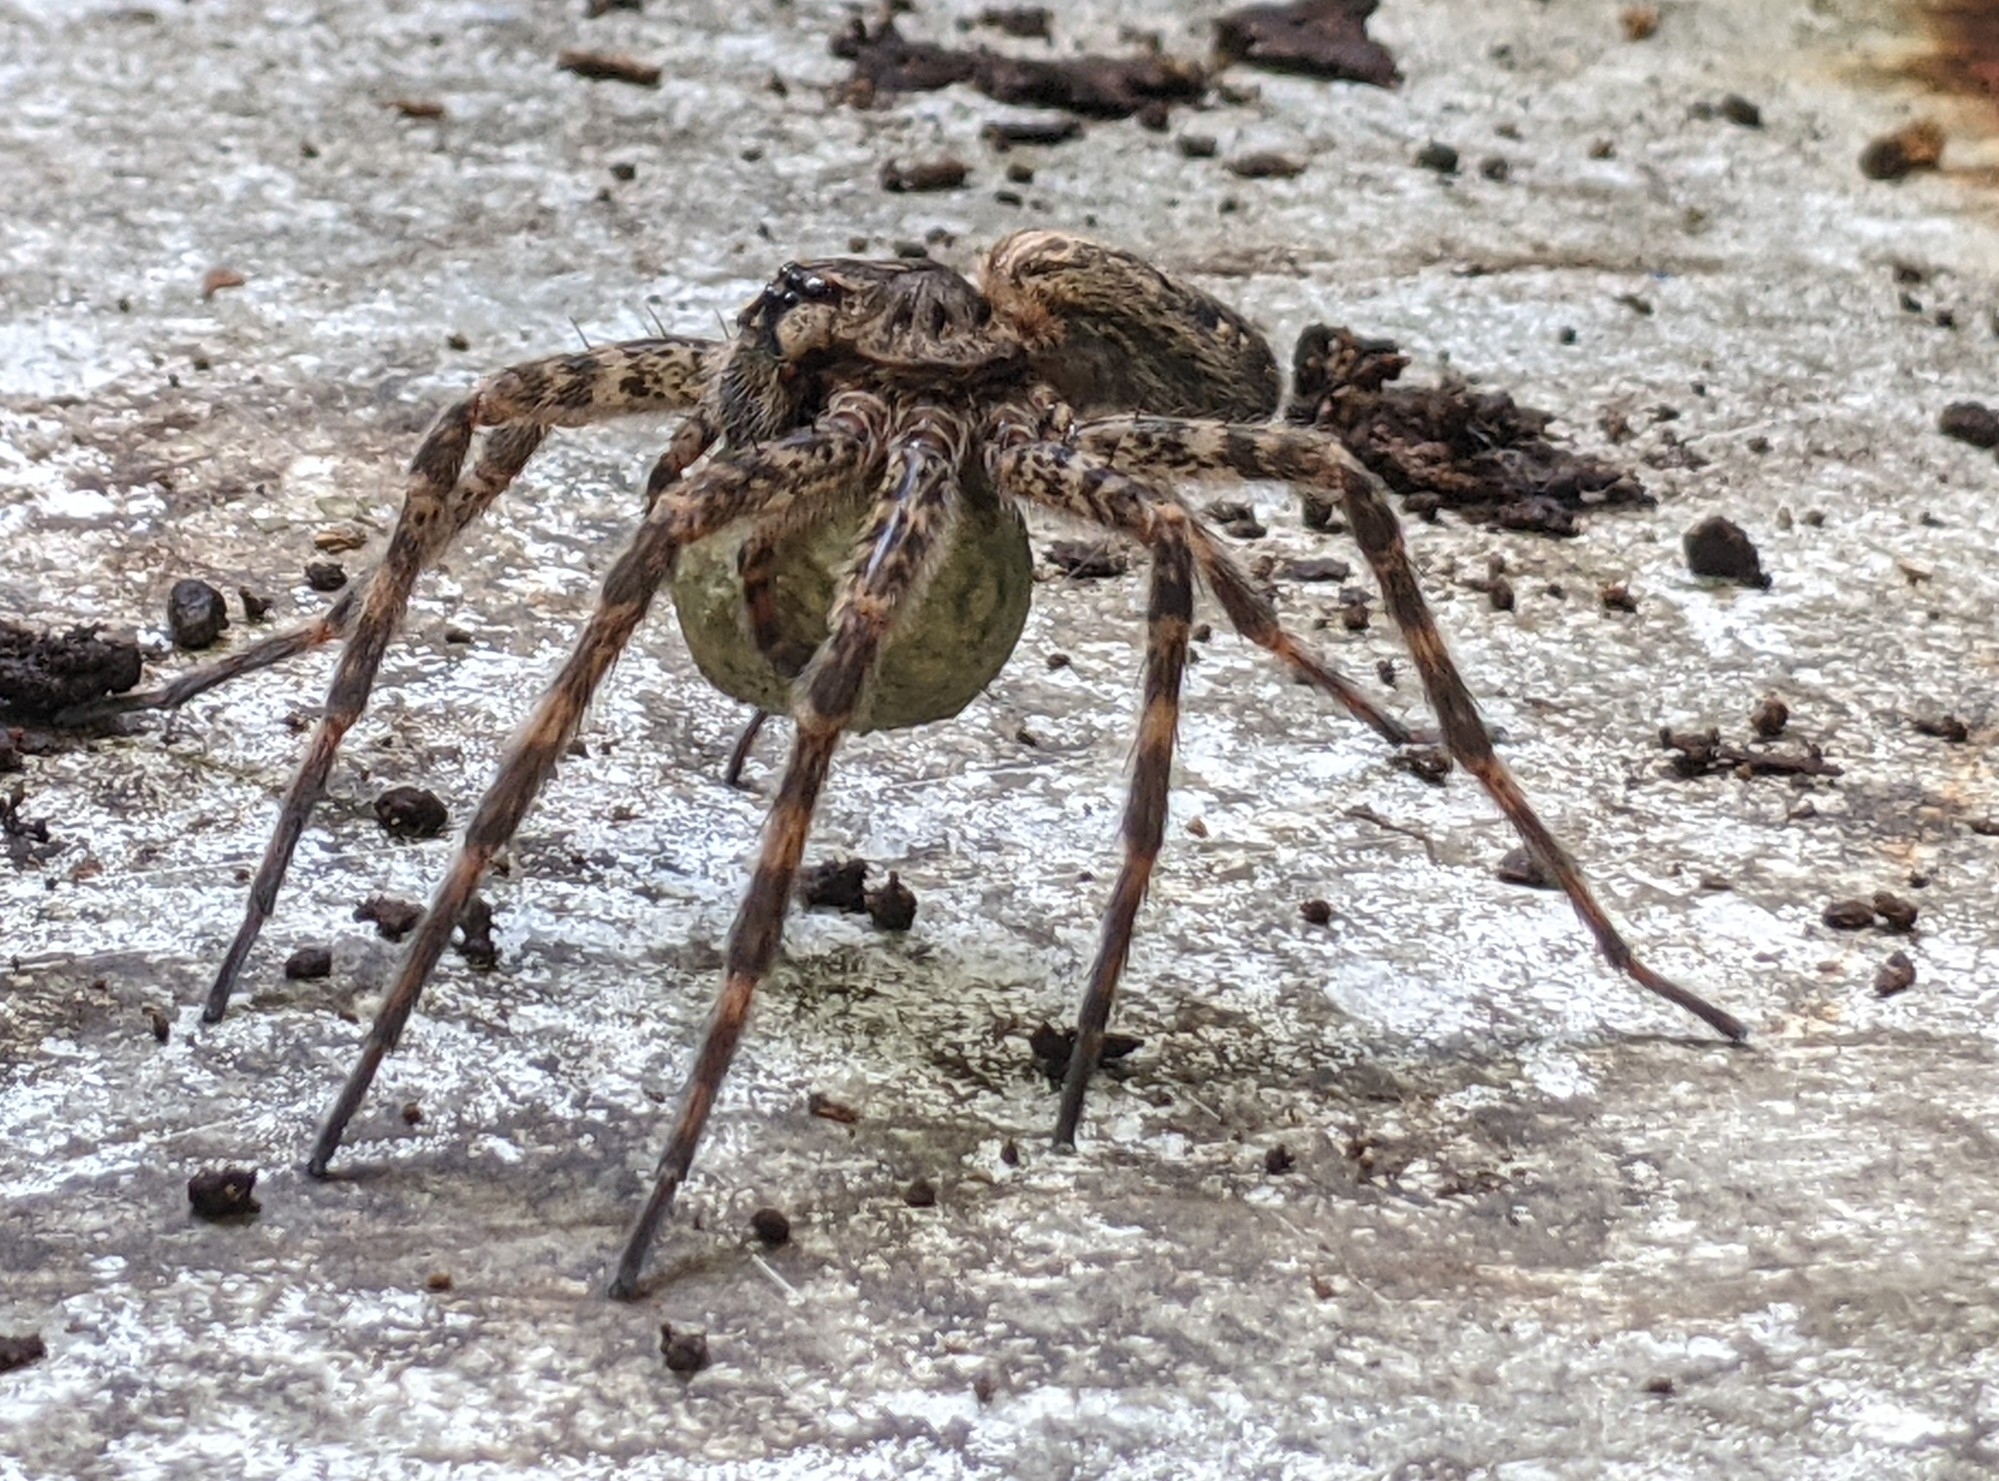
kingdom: Animalia
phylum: Arthropoda
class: Arachnida
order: Araneae
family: Pisauridae
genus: Dolomedes
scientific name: Dolomedes tenebrosus
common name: Dark fishing spider
